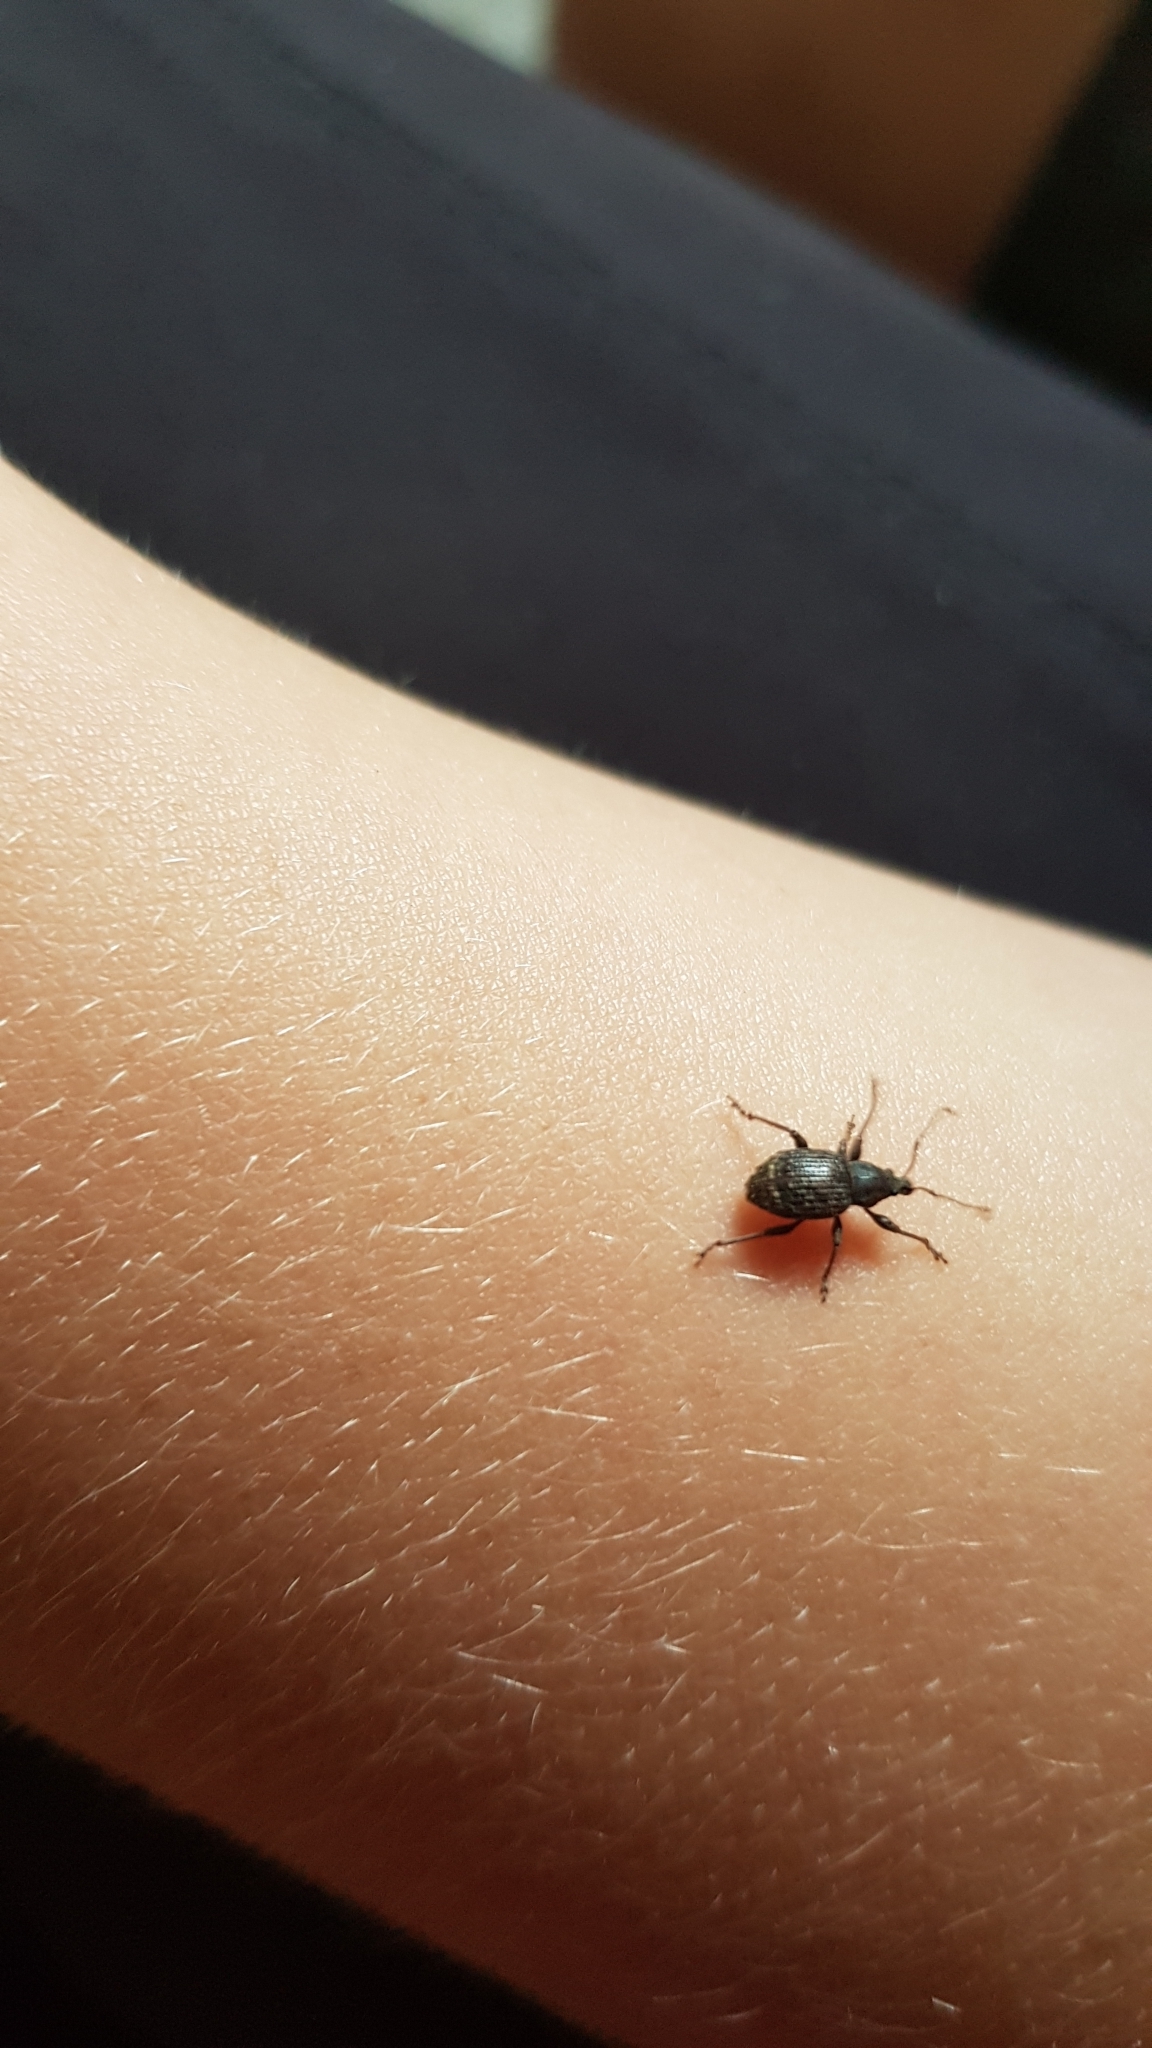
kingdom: Animalia
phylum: Arthropoda
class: Insecta
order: Coleoptera
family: Curculionidae
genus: Phlyctinus
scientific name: Phlyctinus callosus
